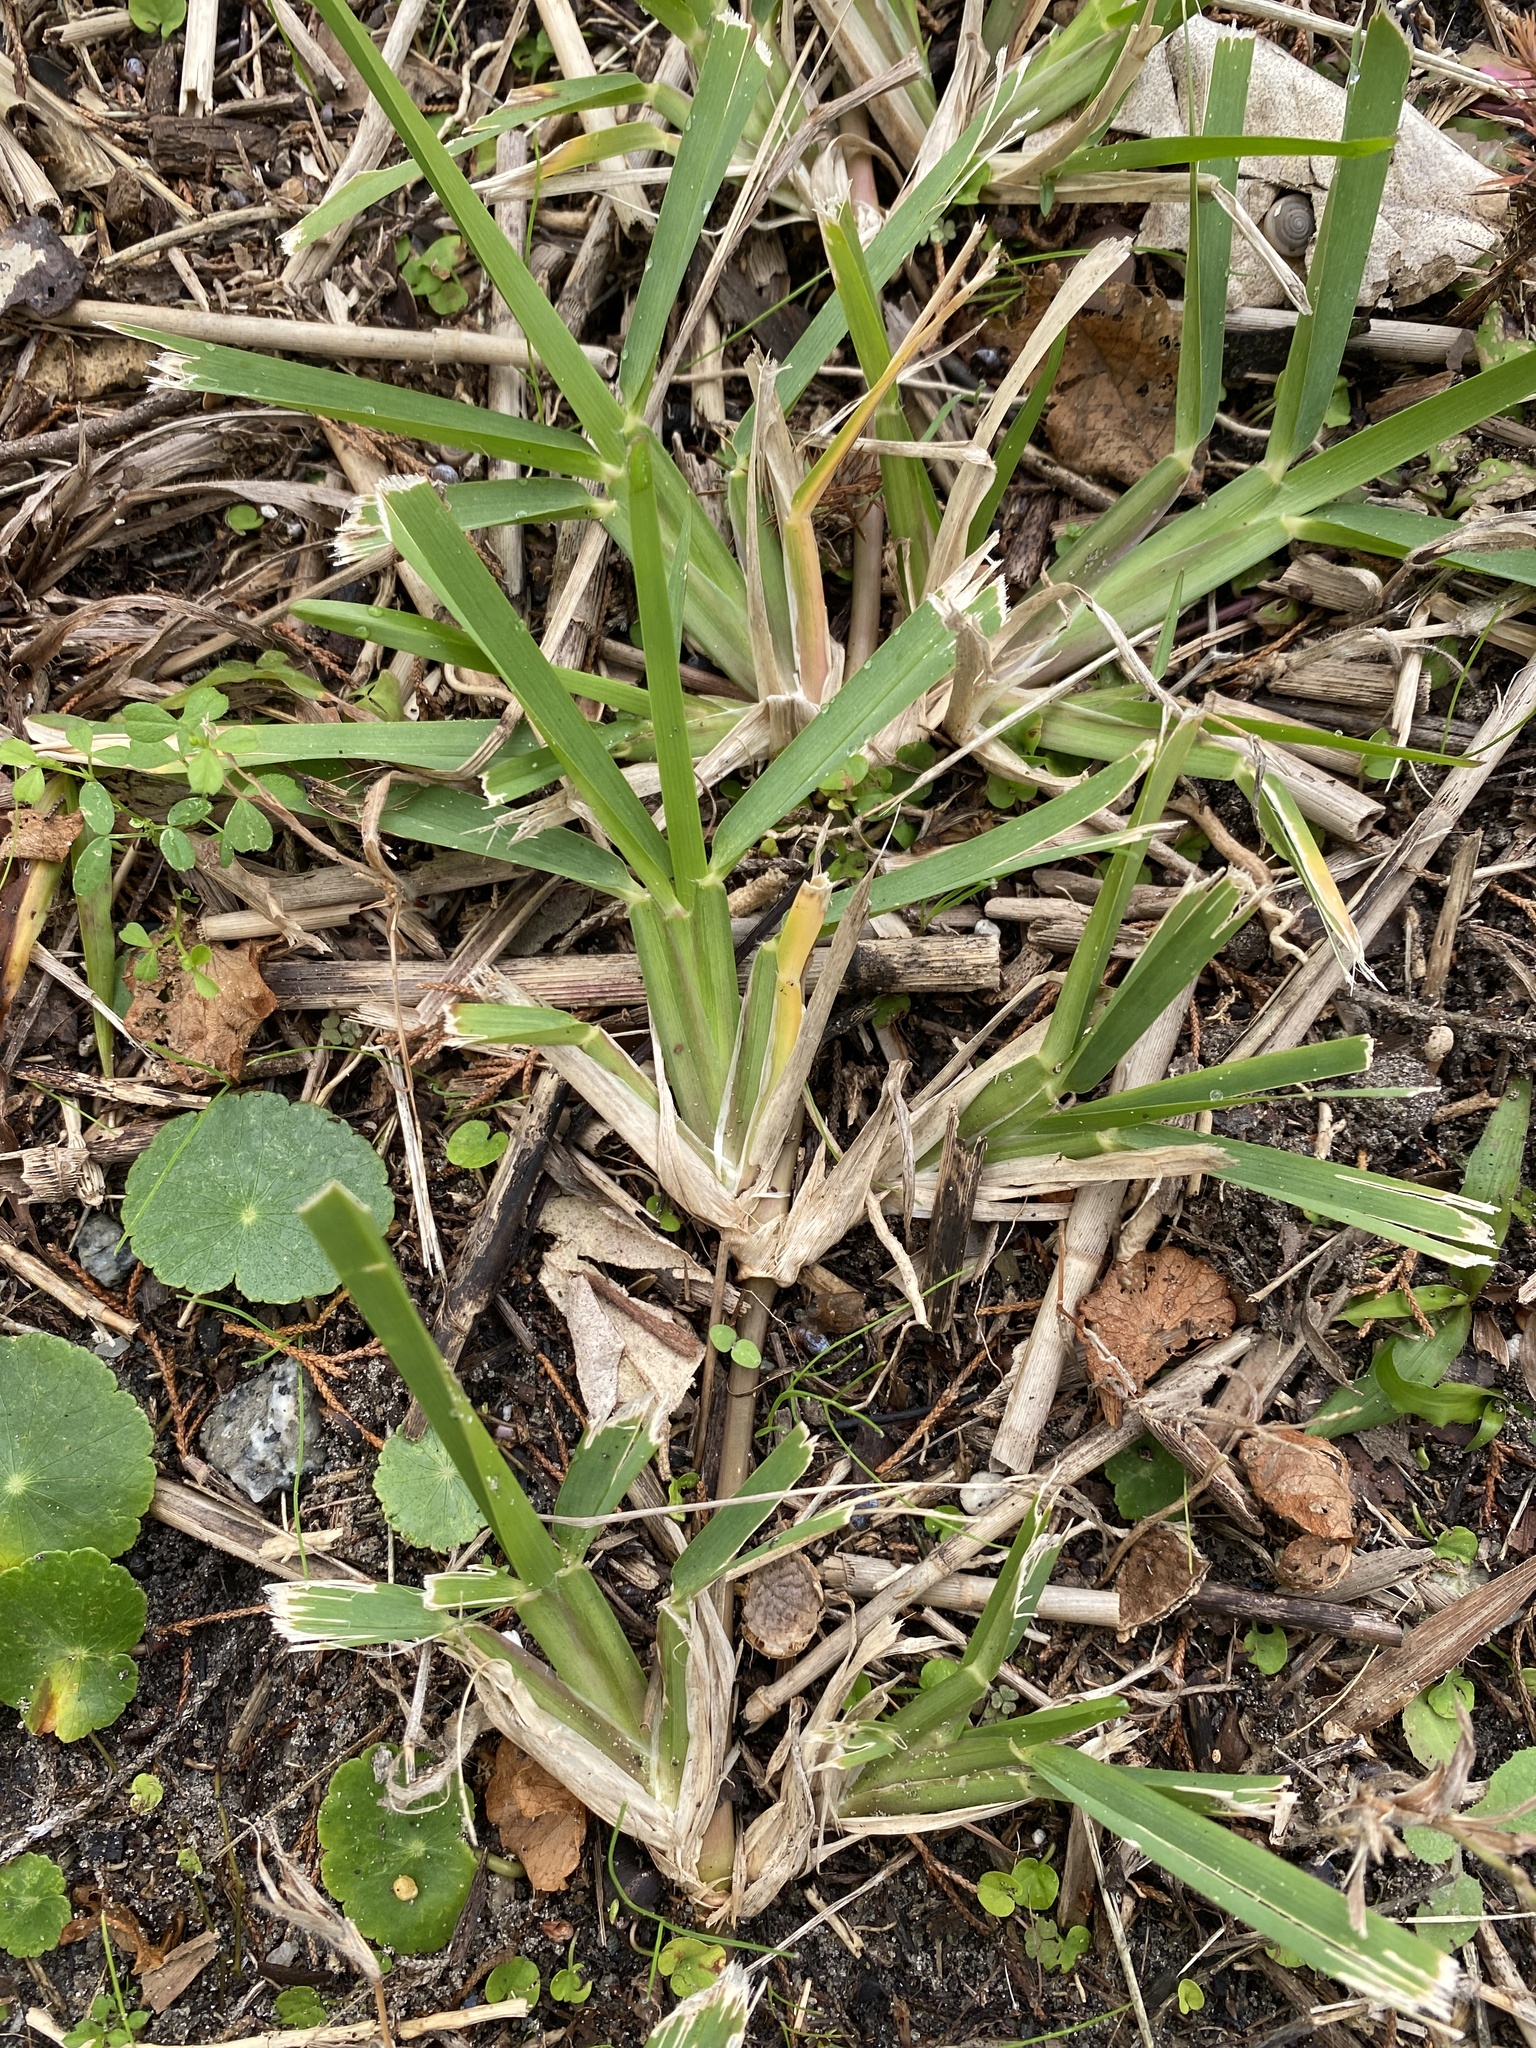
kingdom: Plantae
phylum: Tracheophyta
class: Liliopsida
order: Poales
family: Poaceae
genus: Stenotaphrum
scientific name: Stenotaphrum secundatum
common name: St. augustine grass
